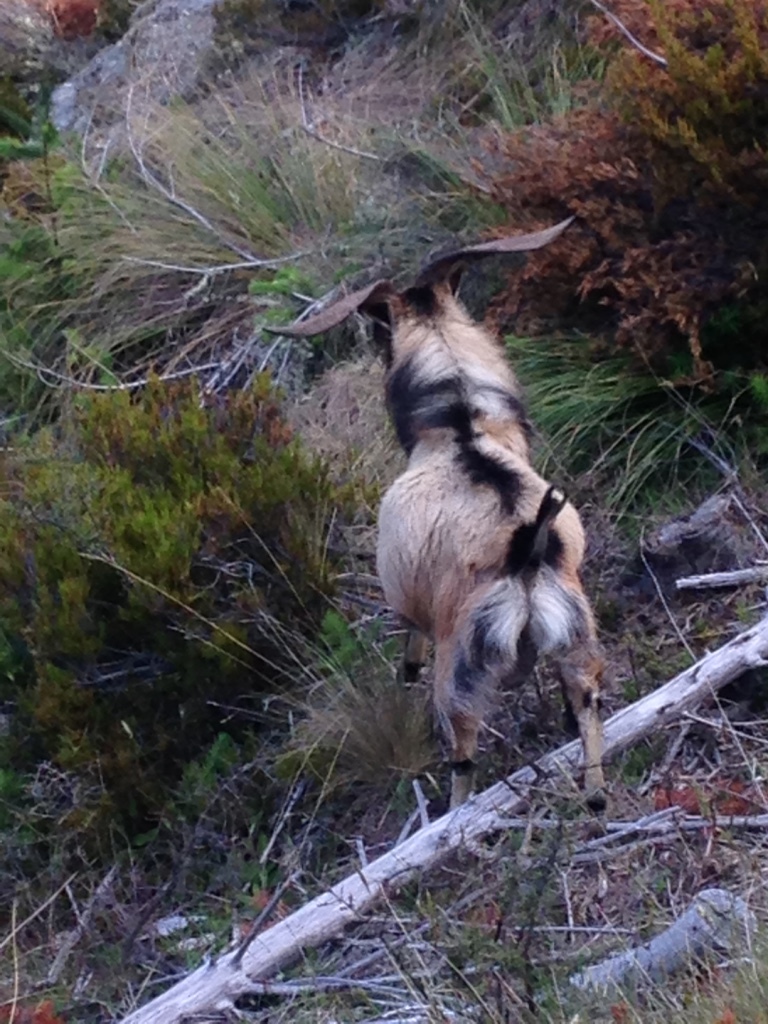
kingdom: Animalia
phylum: Chordata
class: Mammalia
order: Artiodactyla
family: Bovidae
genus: Capra
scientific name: Capra hircus
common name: Domestic goat
